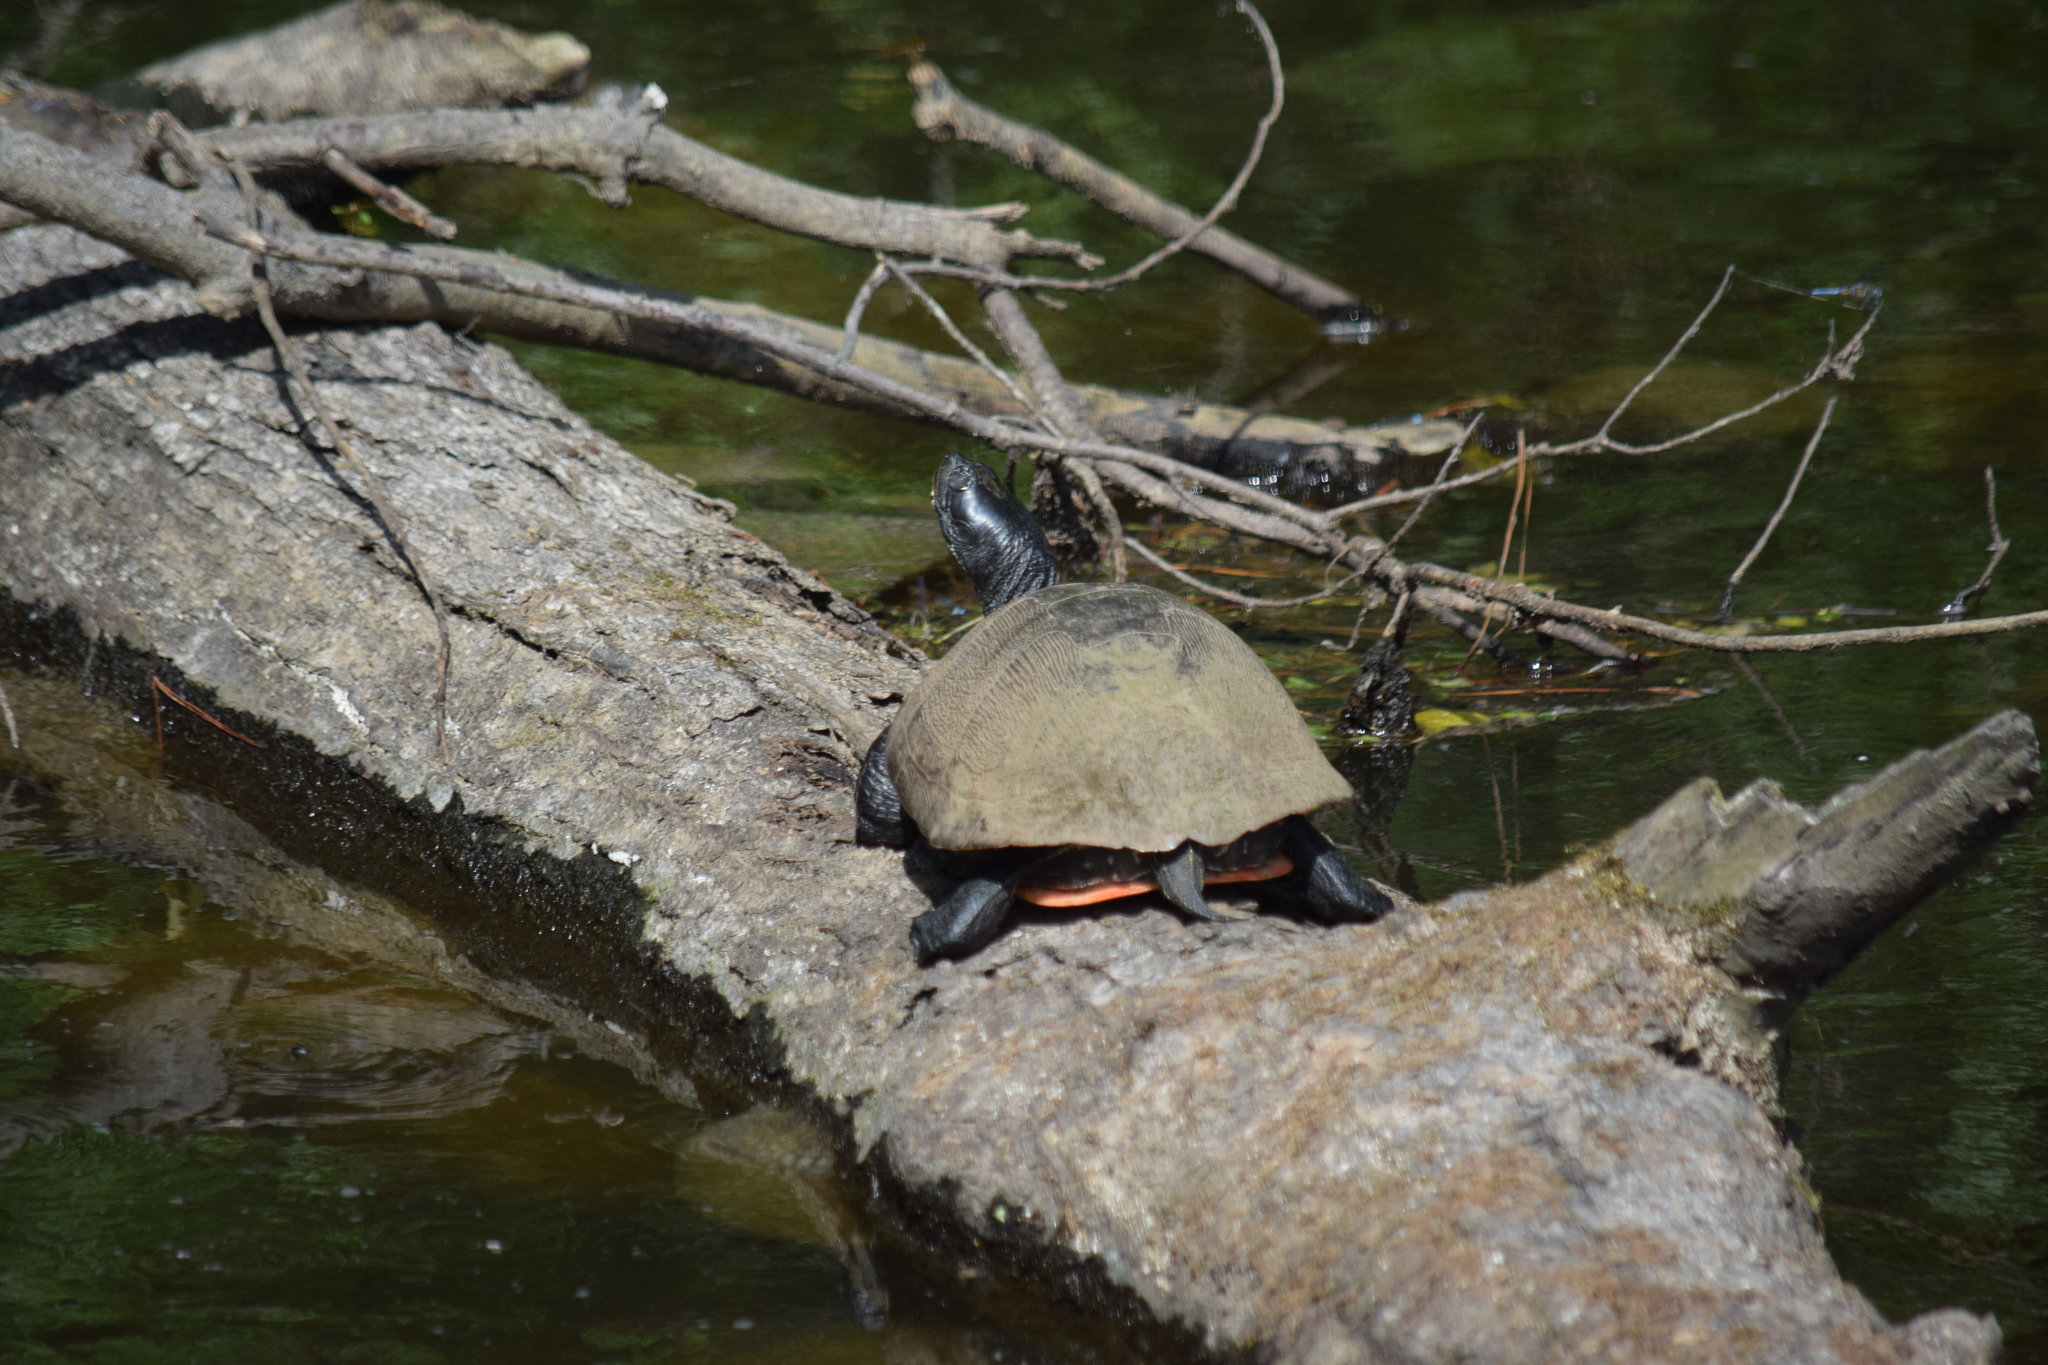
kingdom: Animalia
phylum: Chordata
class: Testudines
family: Emydidae
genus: Pseudemys
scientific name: Pseudemys rubriventris
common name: American red-bellied turtle
